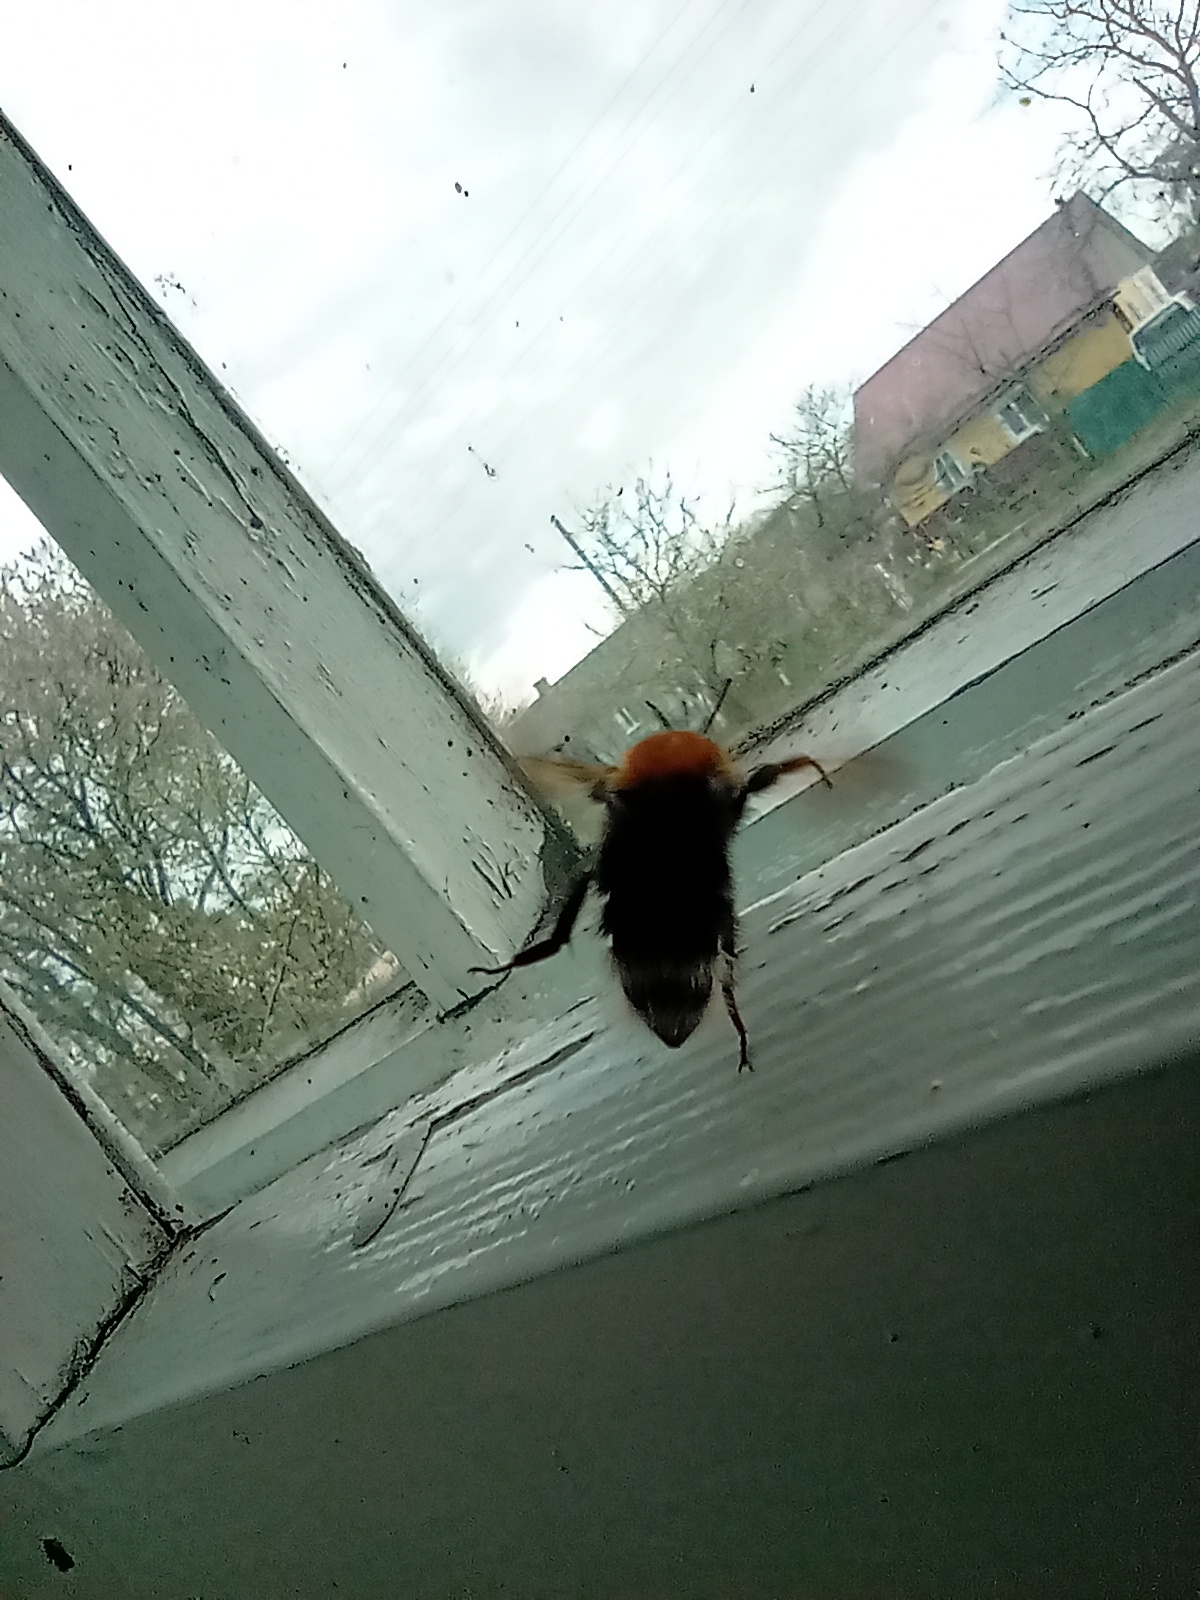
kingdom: Animalia
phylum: Arthropoda
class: Insecta
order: Hymenoptera
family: Apidae
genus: Bombus
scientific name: Bombus hypnorum
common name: New garden bumblebee
